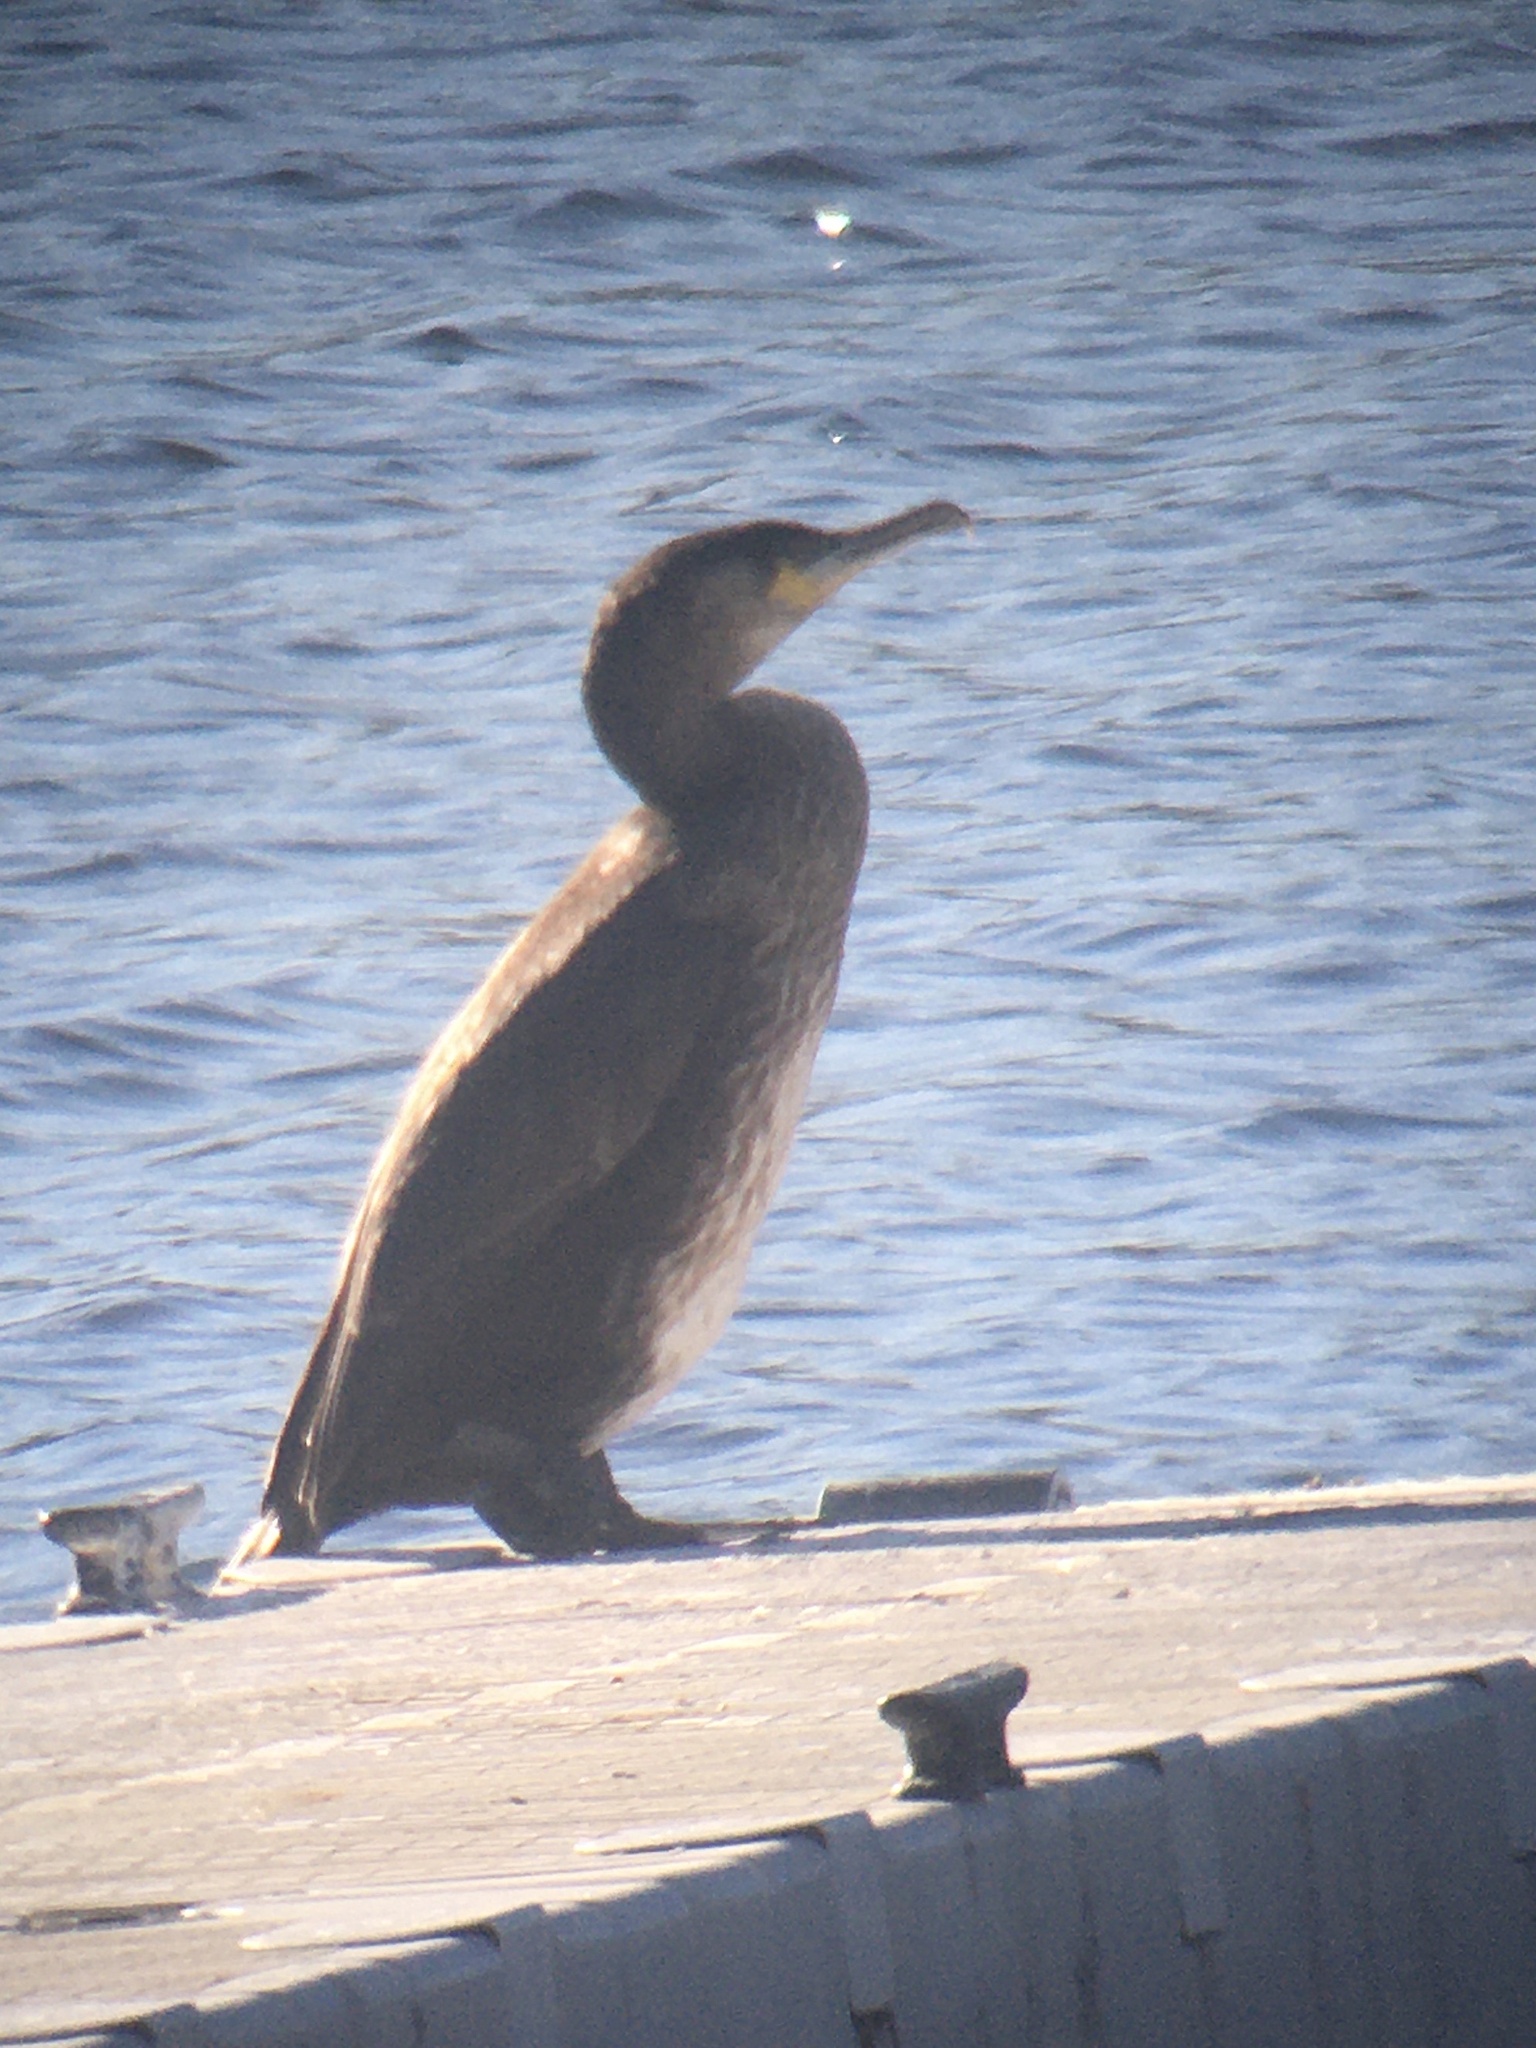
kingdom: Animalia
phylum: Chordata
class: Aves
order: Suliformes
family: Phalacrocoracidae
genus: Phalacrocorax
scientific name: Phalacrocorax carbo
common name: Great cormorant
